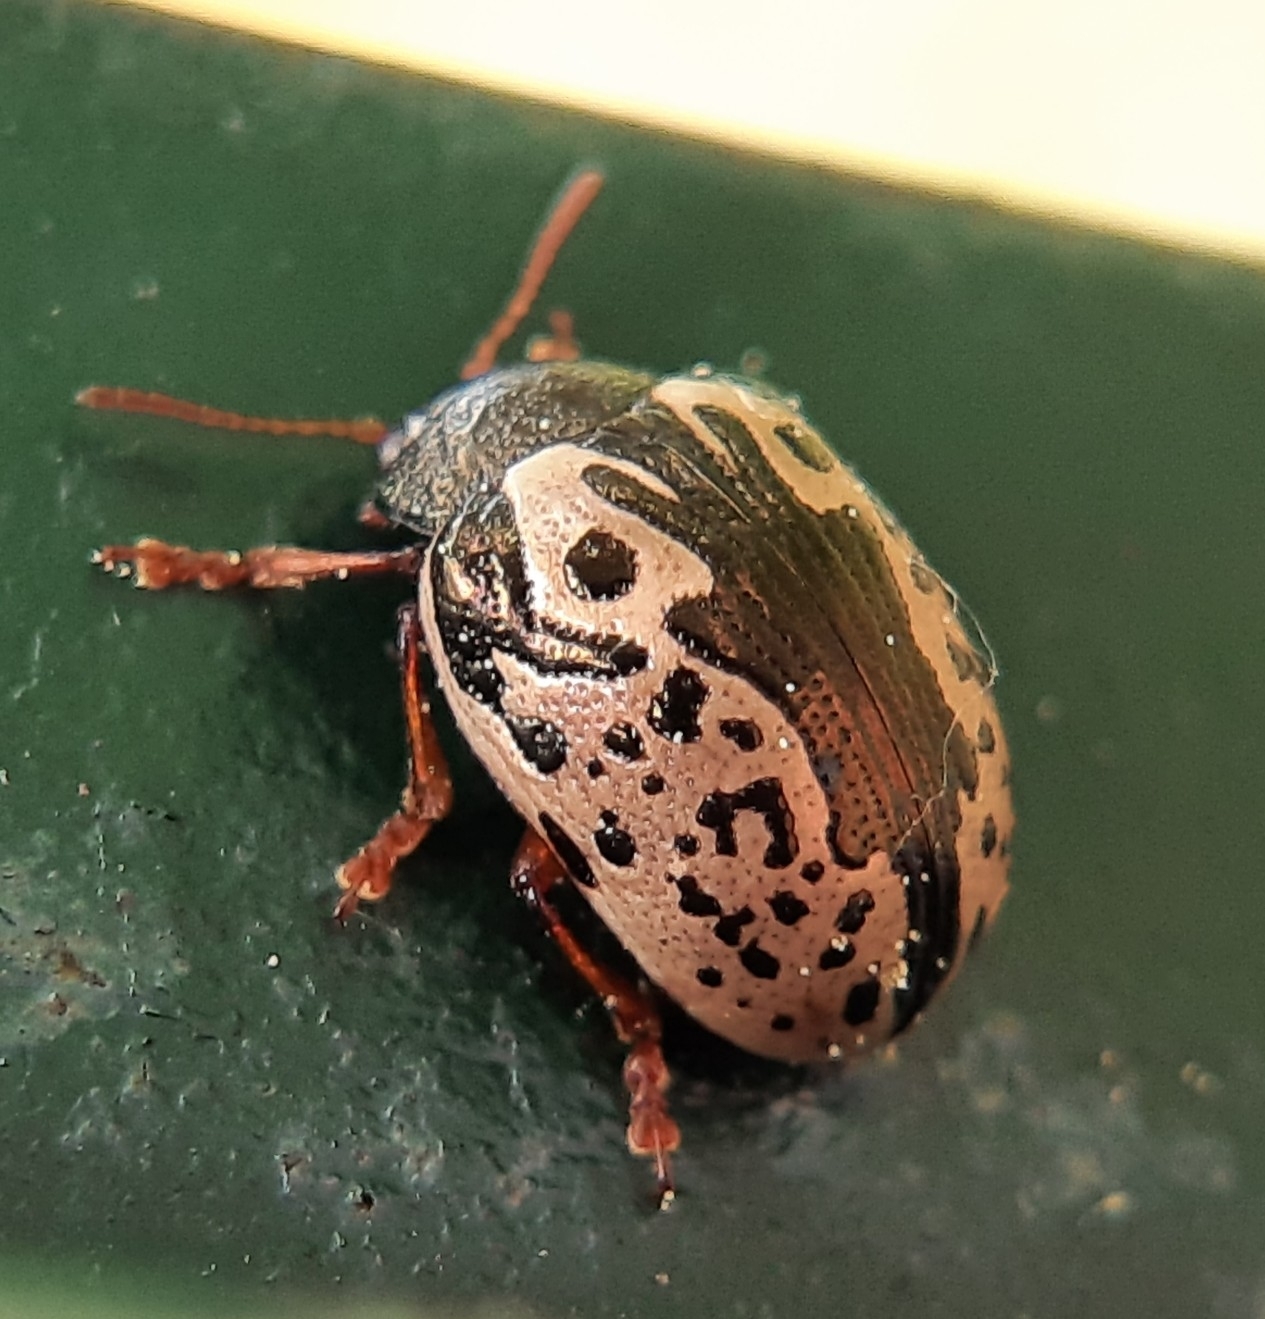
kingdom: Animalia
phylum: Arthropoda
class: Insecta
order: Coleoptera
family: Chrysomelidae
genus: Calligrapha
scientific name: Calligrapha confluens
